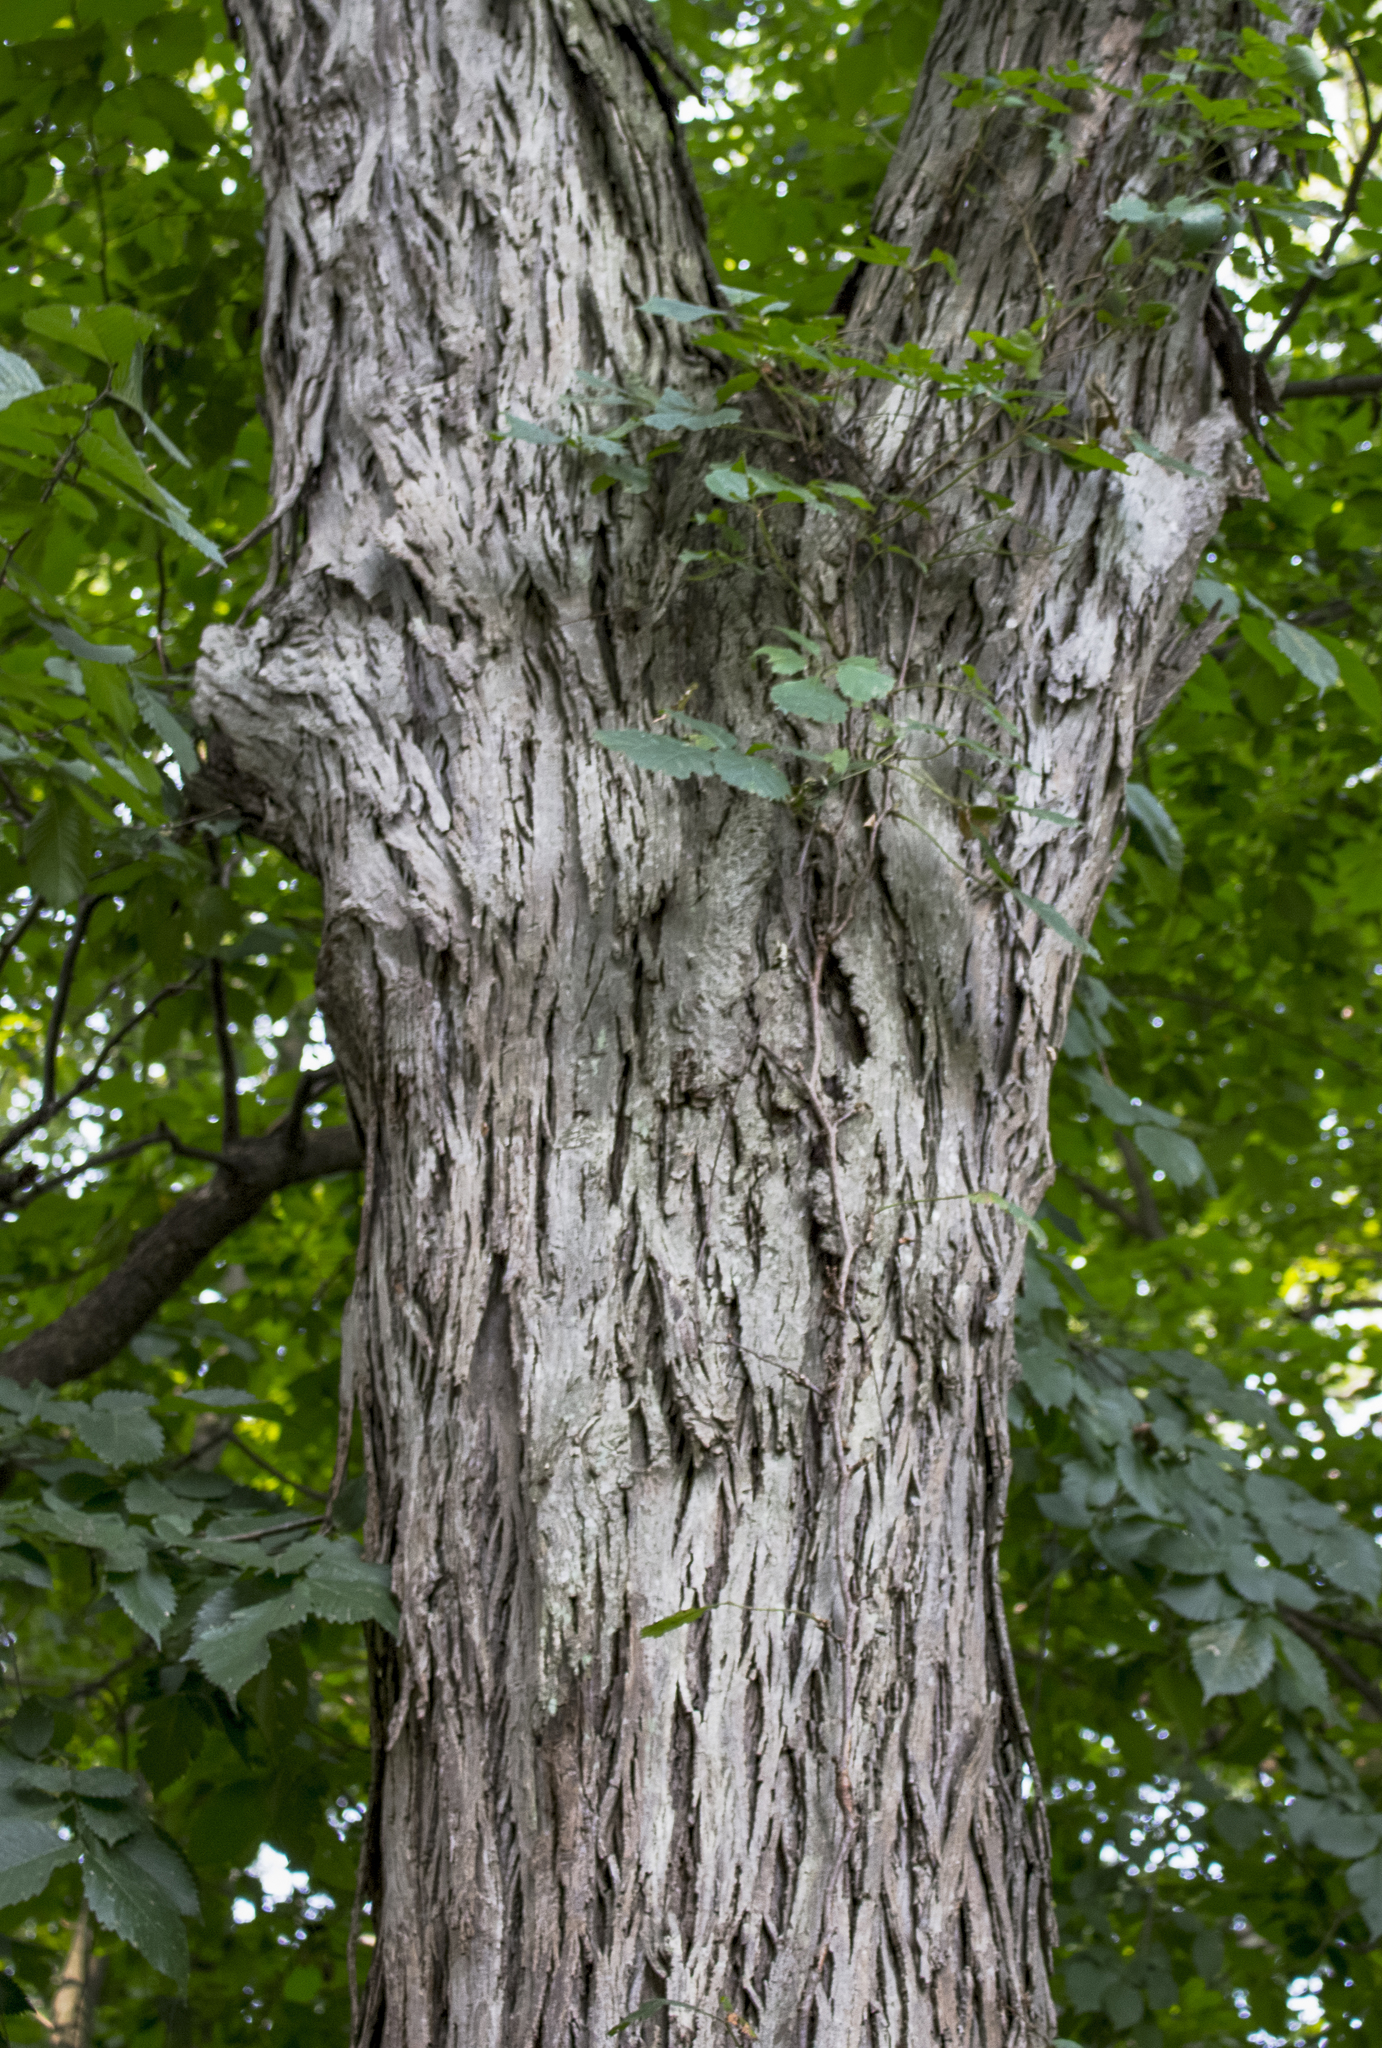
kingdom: Plantae
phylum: Tracheophyta
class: Magnoliopsida
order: Fagales
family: Juglandaceae
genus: Carya
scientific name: Carya ovata
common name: Shagbark hickory
